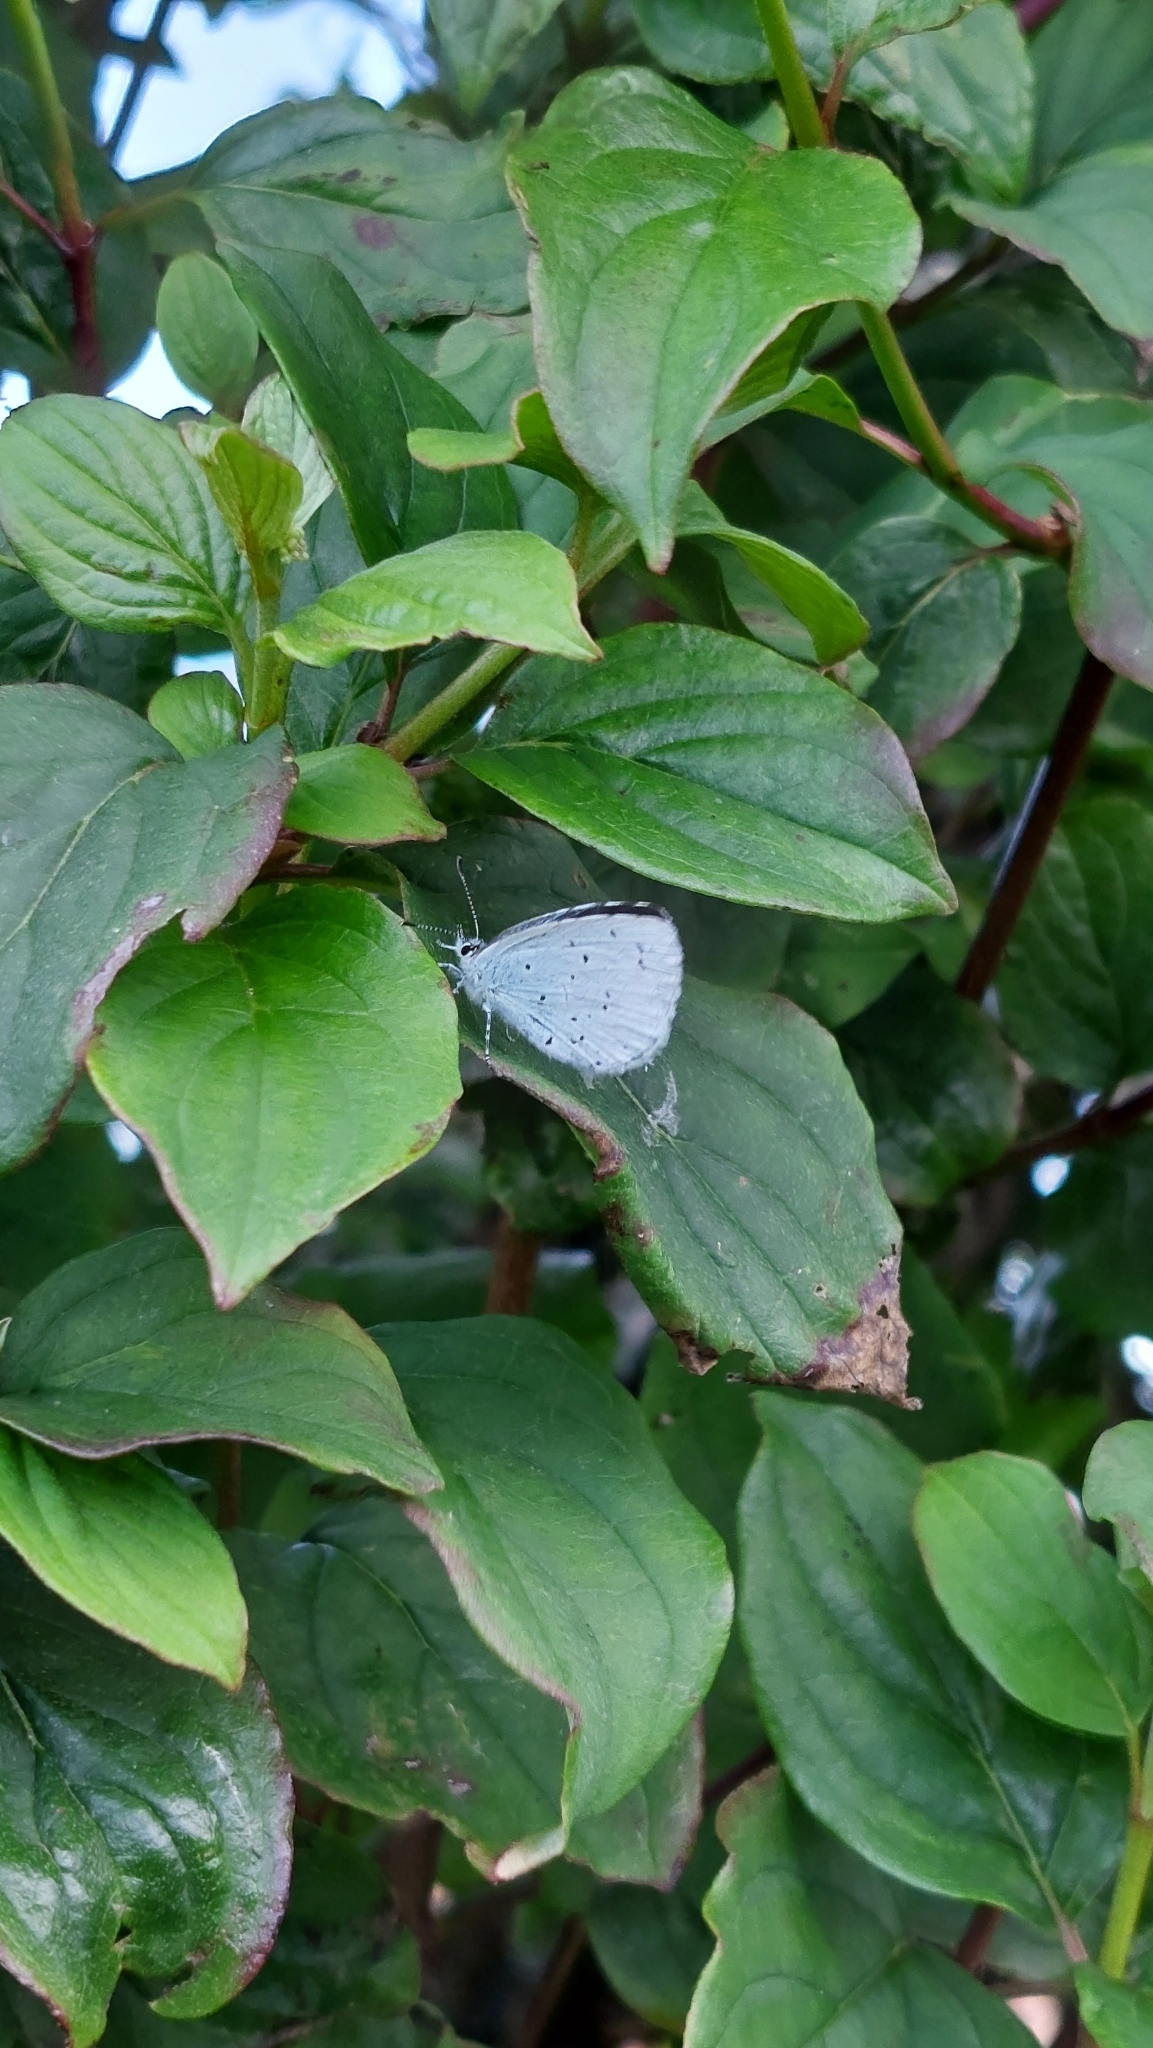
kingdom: Animalia
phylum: Arthropoda
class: Insecta
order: Lepidoptera
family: Lycaenidae
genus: Celastrina
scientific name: Celastrina argiolus
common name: Holly blue
